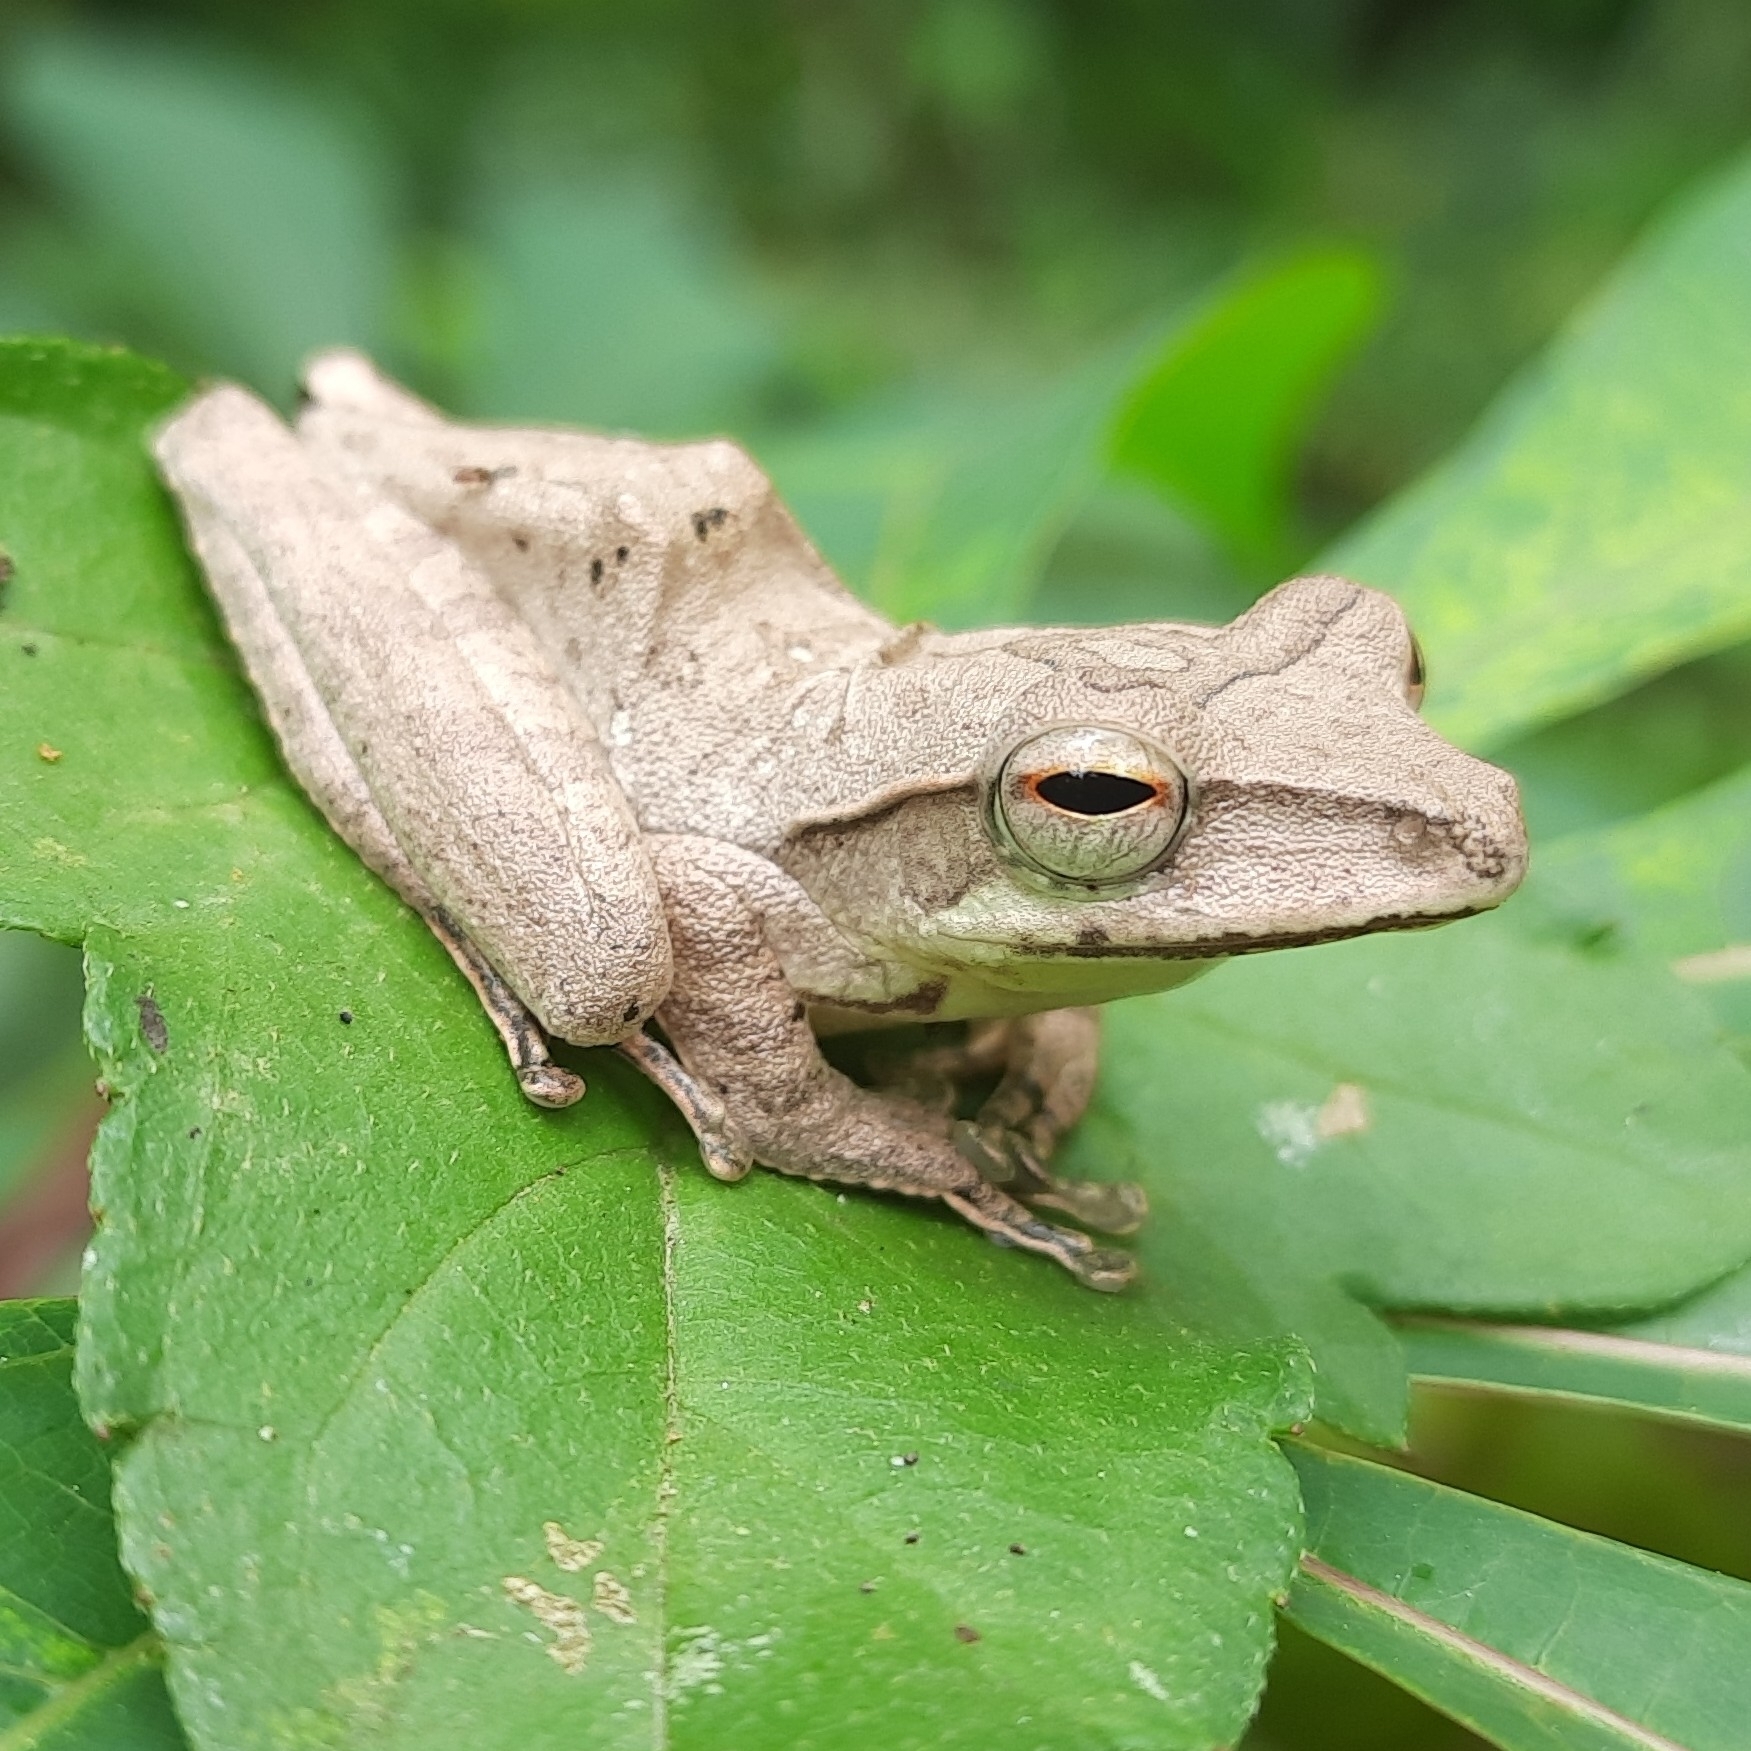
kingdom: Animalia
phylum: Chordata
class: Amphibia
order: Anura
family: Rhacophoridae
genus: Polypedates
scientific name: Polypedates occidentalis
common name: Charpa tree frog
